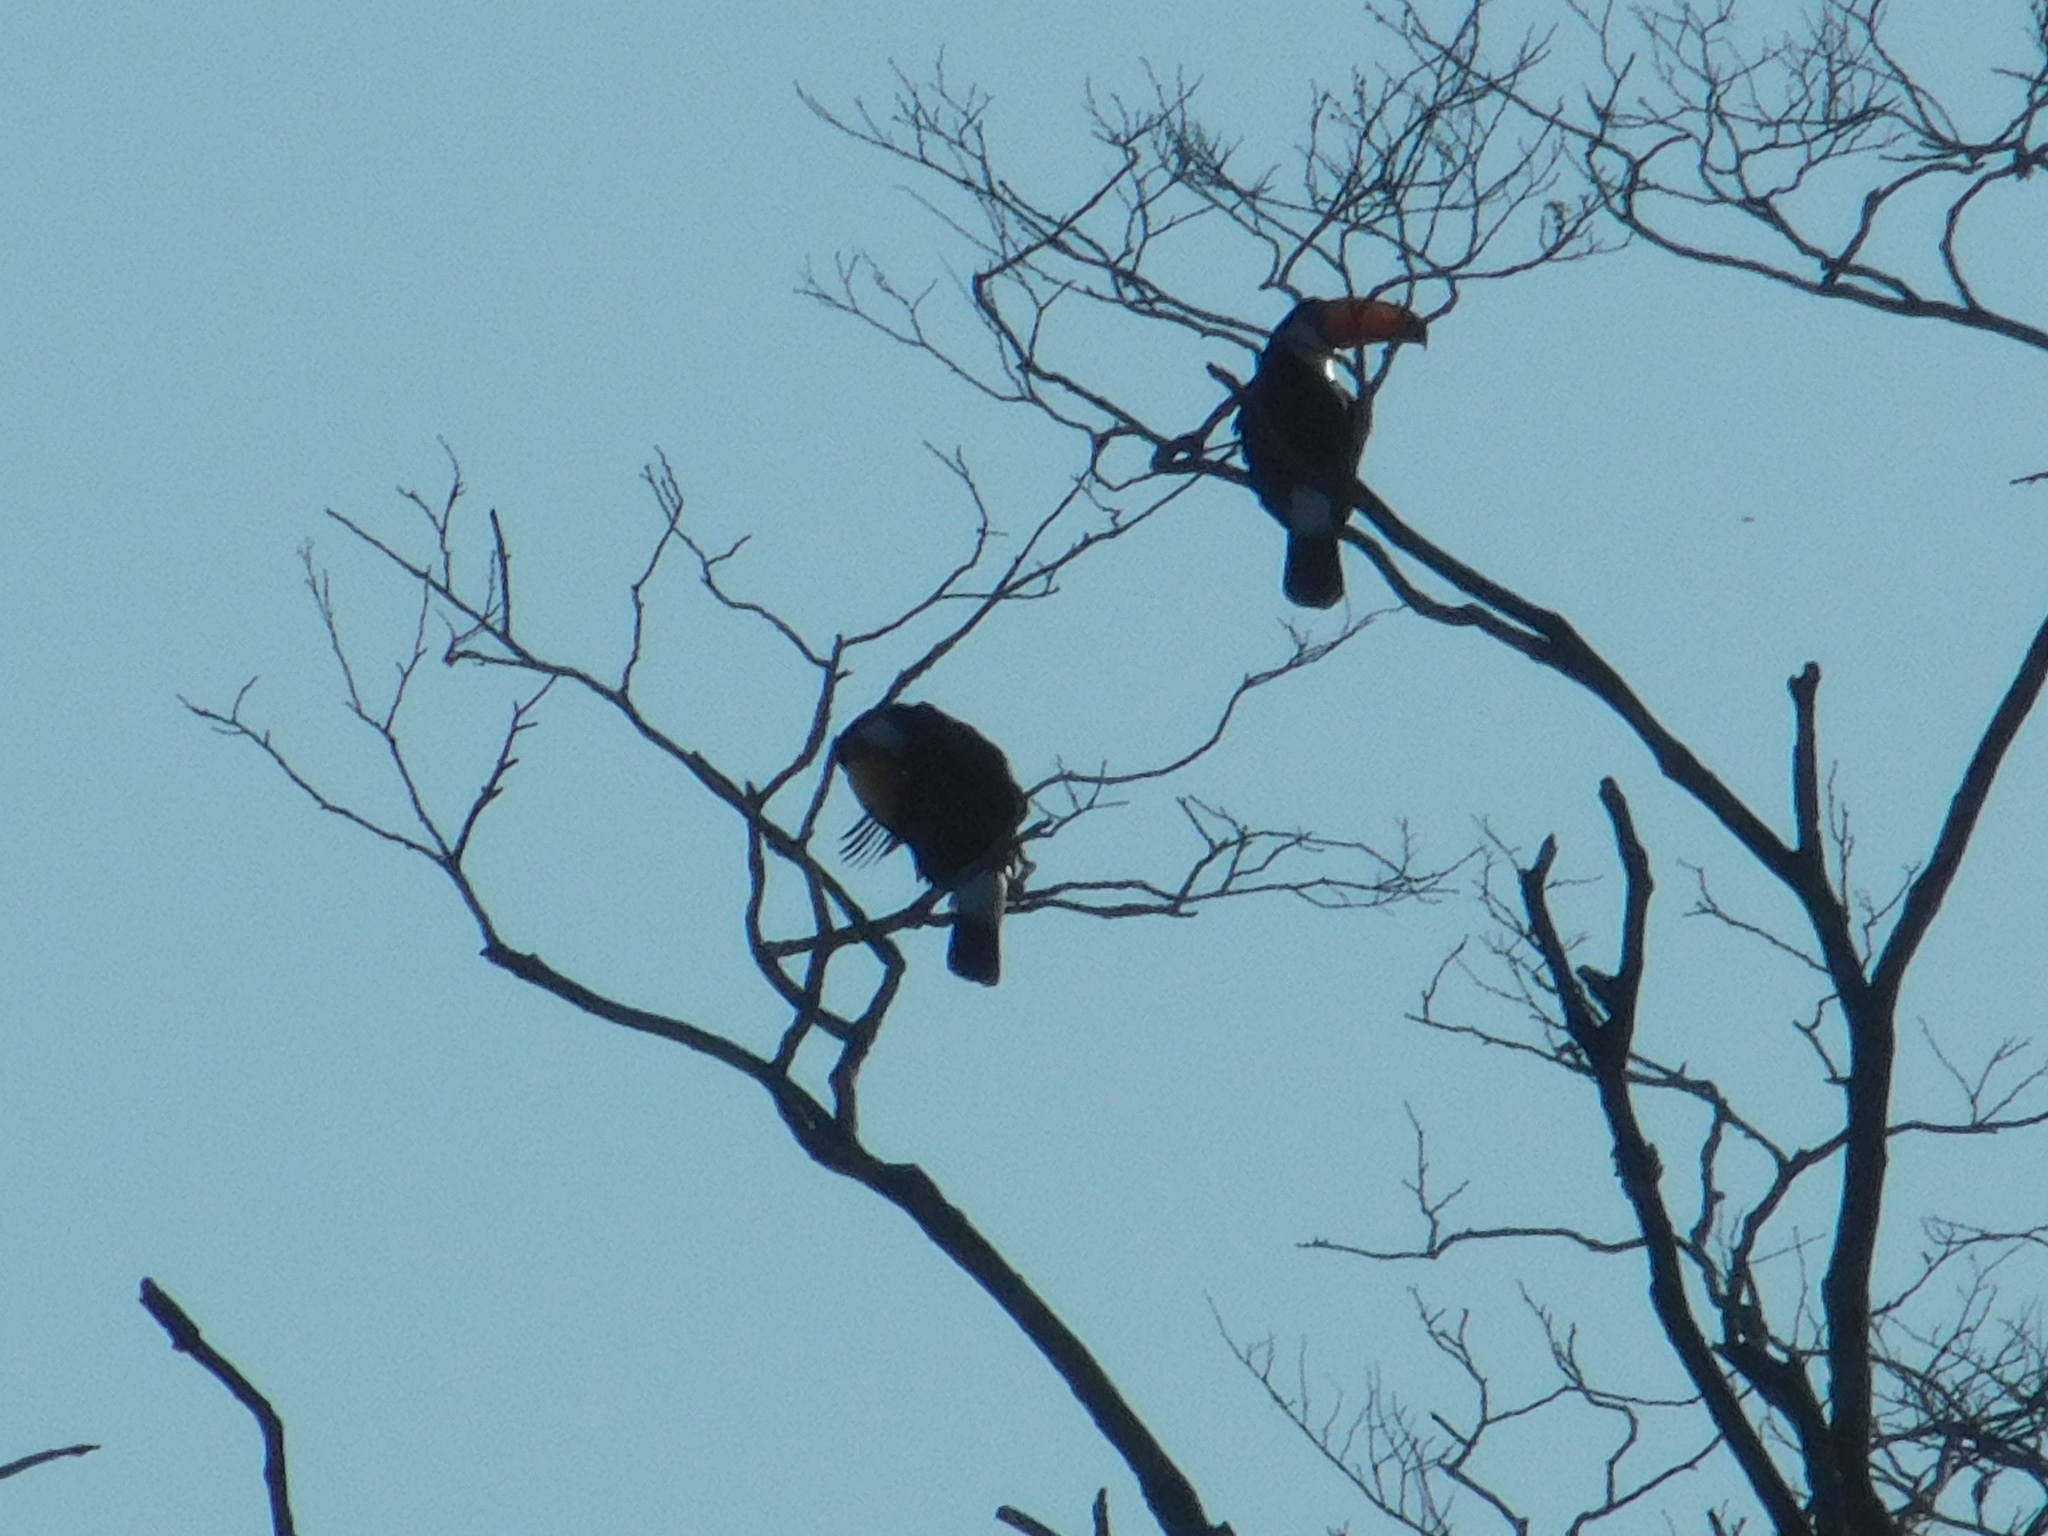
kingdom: Animalia
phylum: Chordata
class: Aves
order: Piciformes
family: Ramphastidae
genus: Ramphastos
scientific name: Ramphastos toco
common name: Toco toucan
